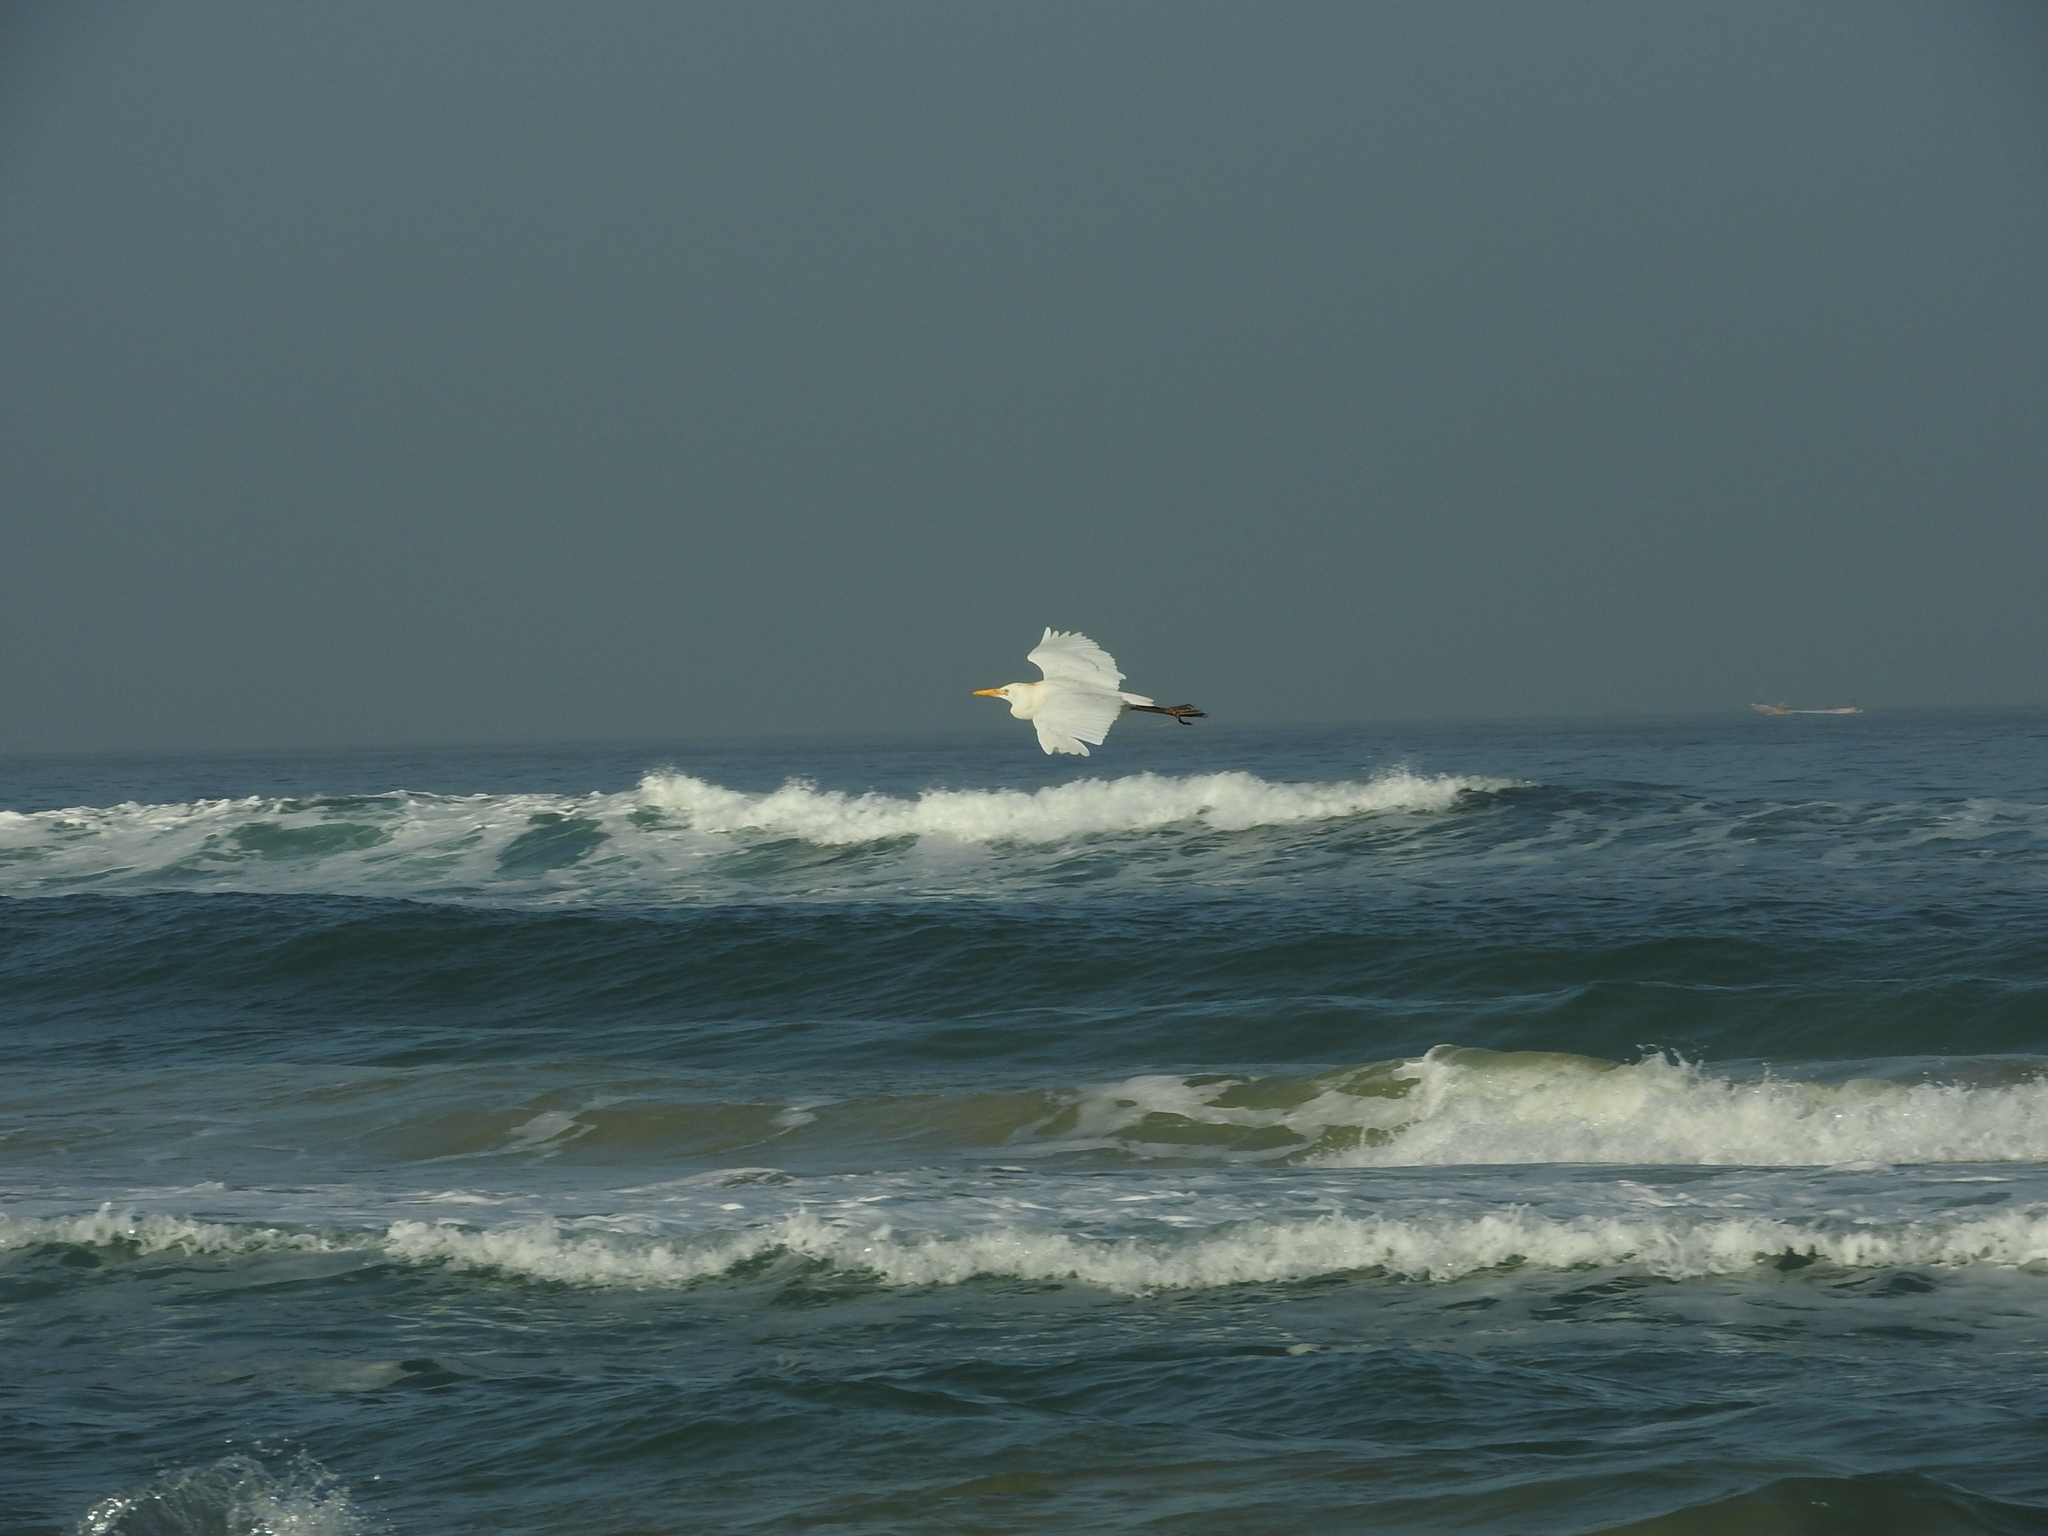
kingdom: Animalia
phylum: Chordata
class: Aves
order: Pelecaniformes
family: Ardeidae
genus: Bubulcus
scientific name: Bubulcus ibis
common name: Cattle egret
